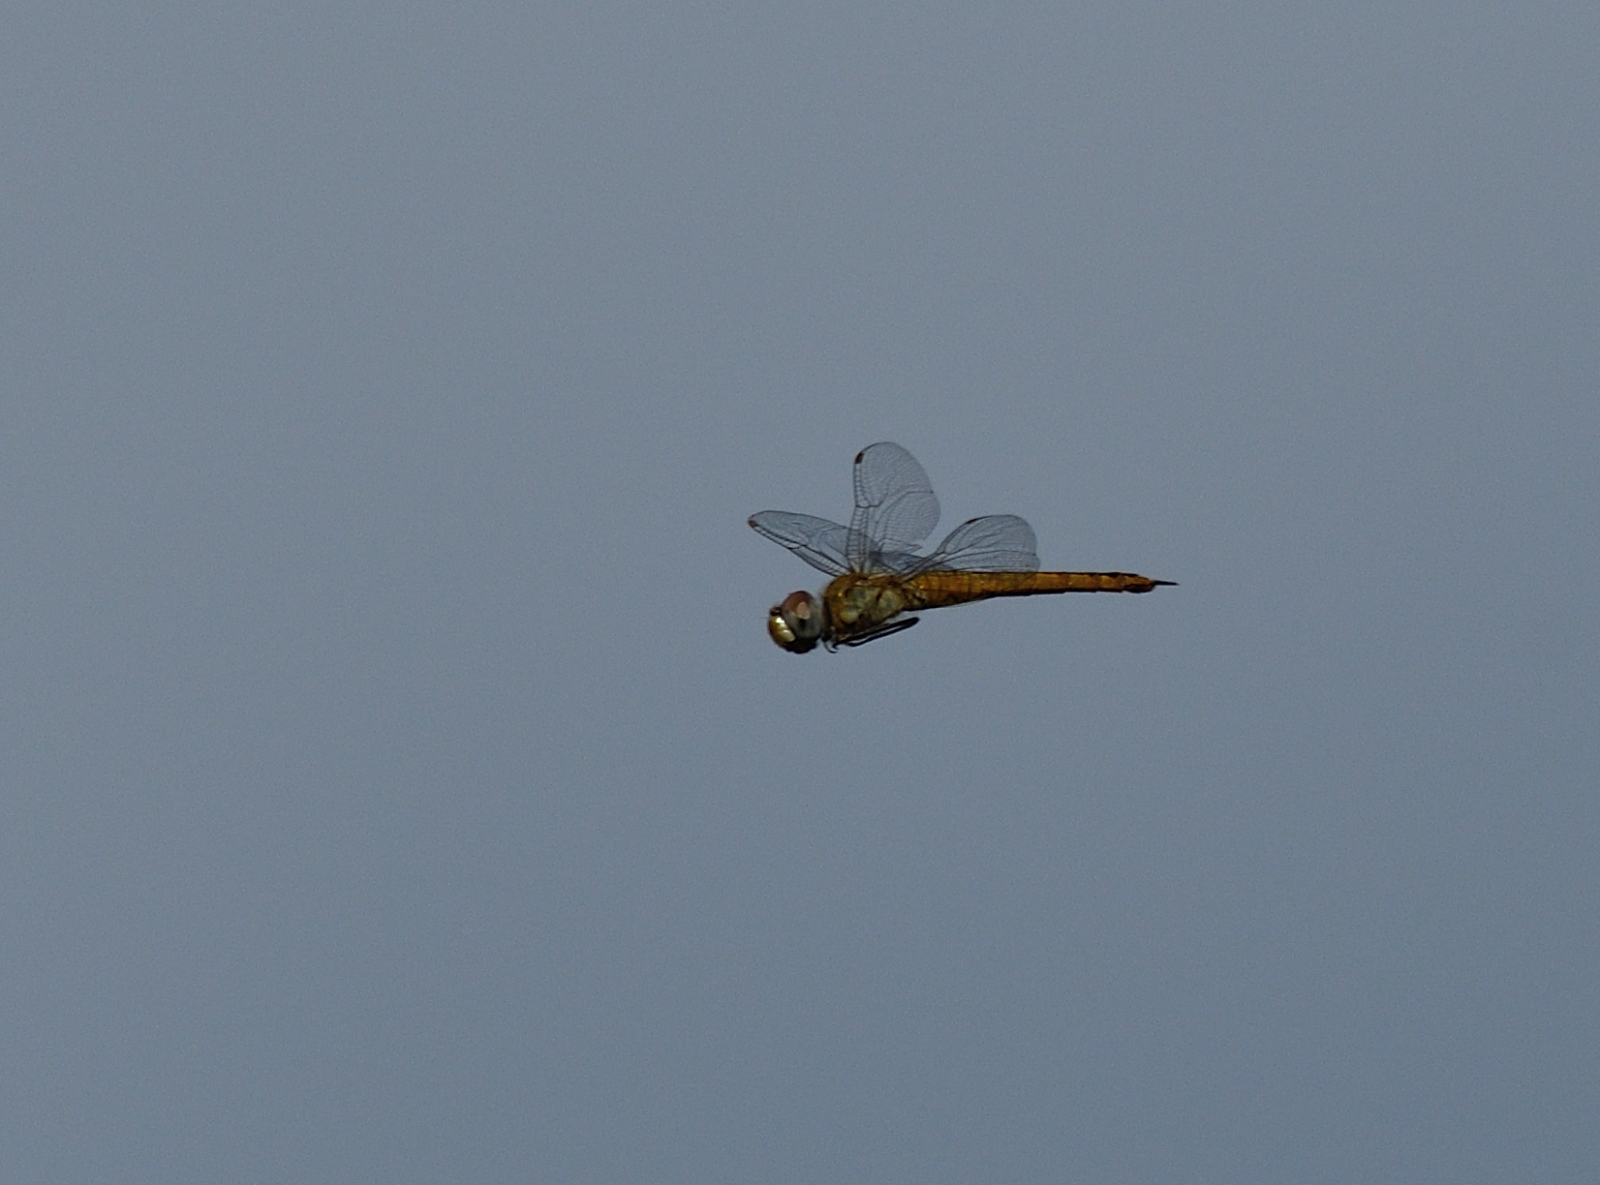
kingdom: Animalia
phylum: Arthropoda
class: Insecta
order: Odonata
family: Libellulidae
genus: Pantala
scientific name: Pantala flavescens
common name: Wandering glider
